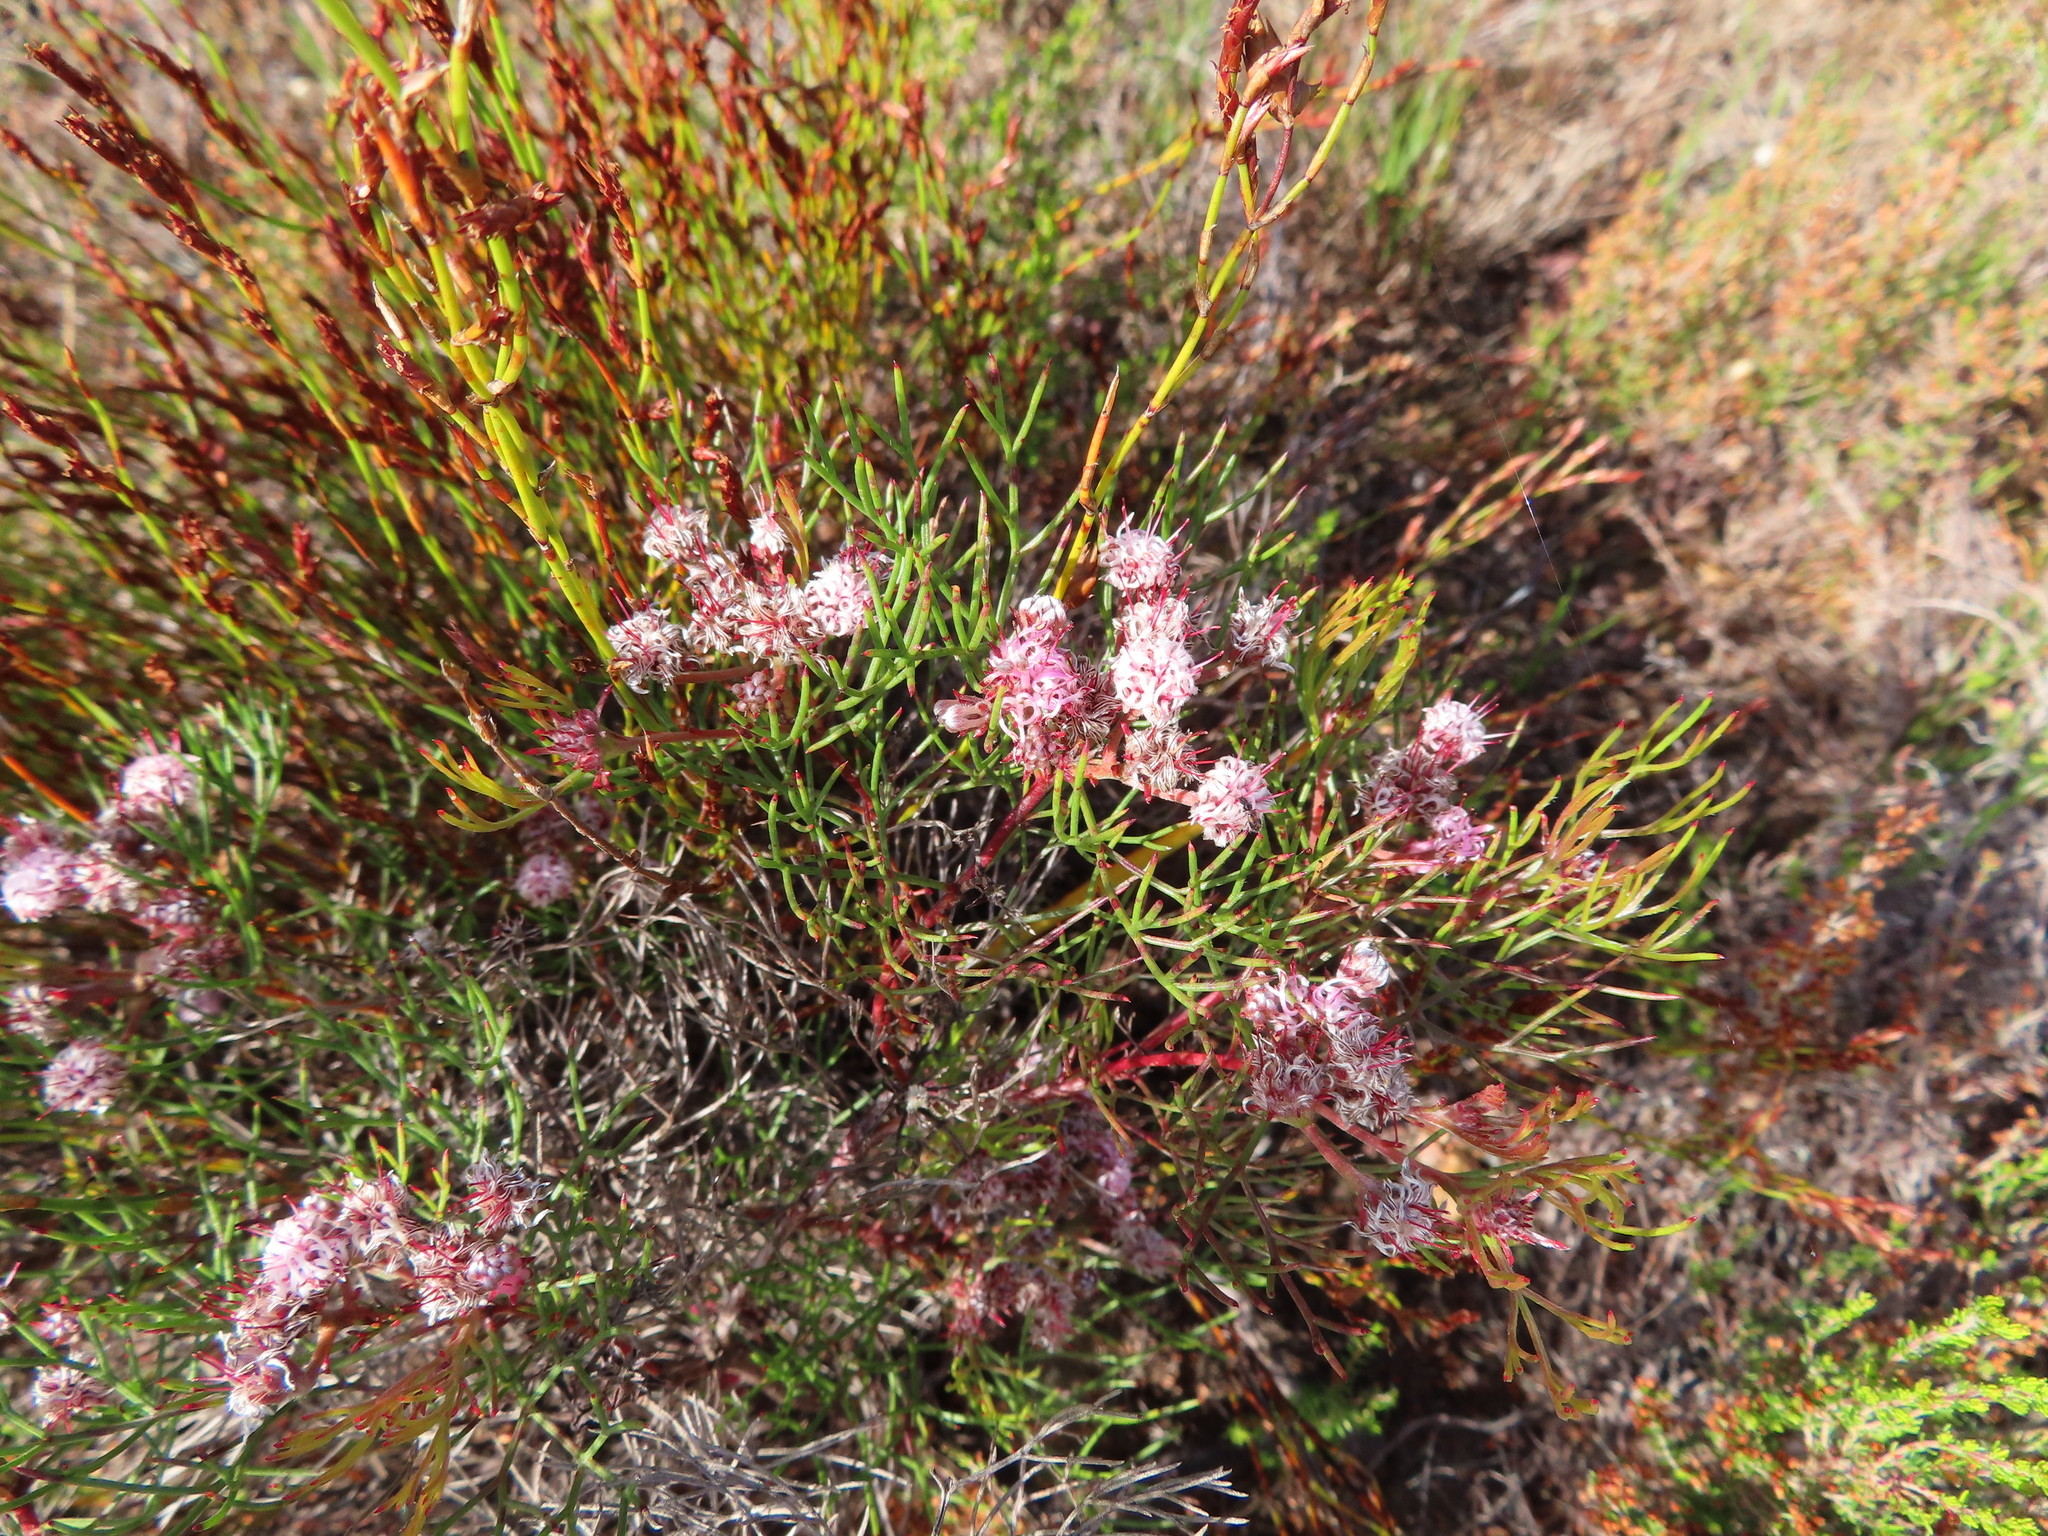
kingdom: Plantae
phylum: Tracheophyta
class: Magnoliopsida
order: Proteales
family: Proteaceae
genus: Serruria
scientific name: Serruria fasciflora
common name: Common pin spiderhead
